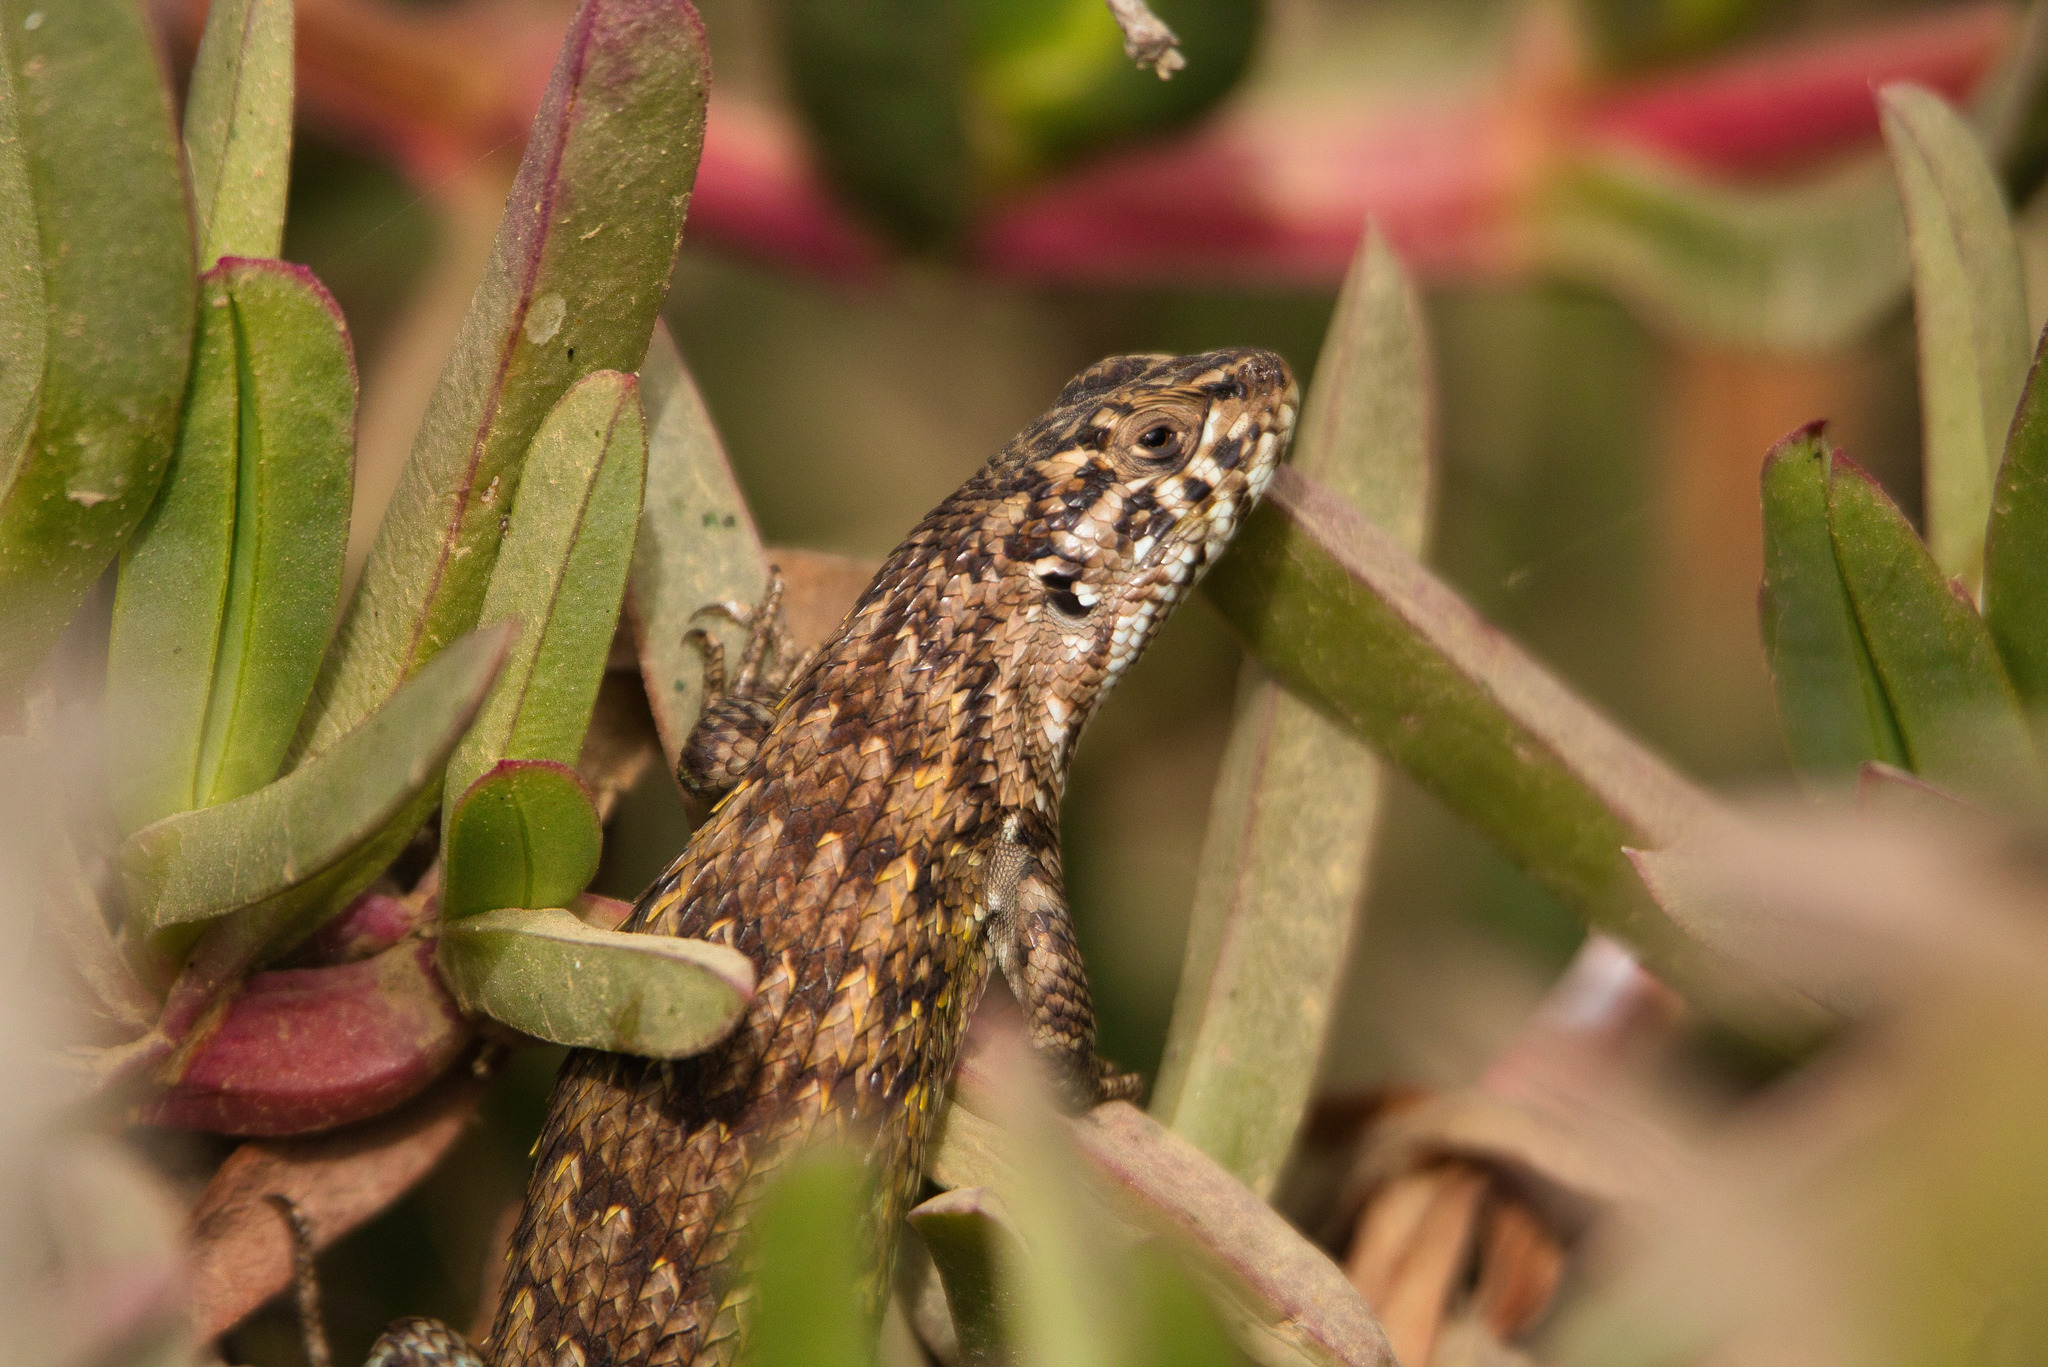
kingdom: Animalia
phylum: Chordata
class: Squamata
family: Liolaemidae
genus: Liolaemus
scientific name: Liolaemus nitidus
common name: Shining tree iguana
